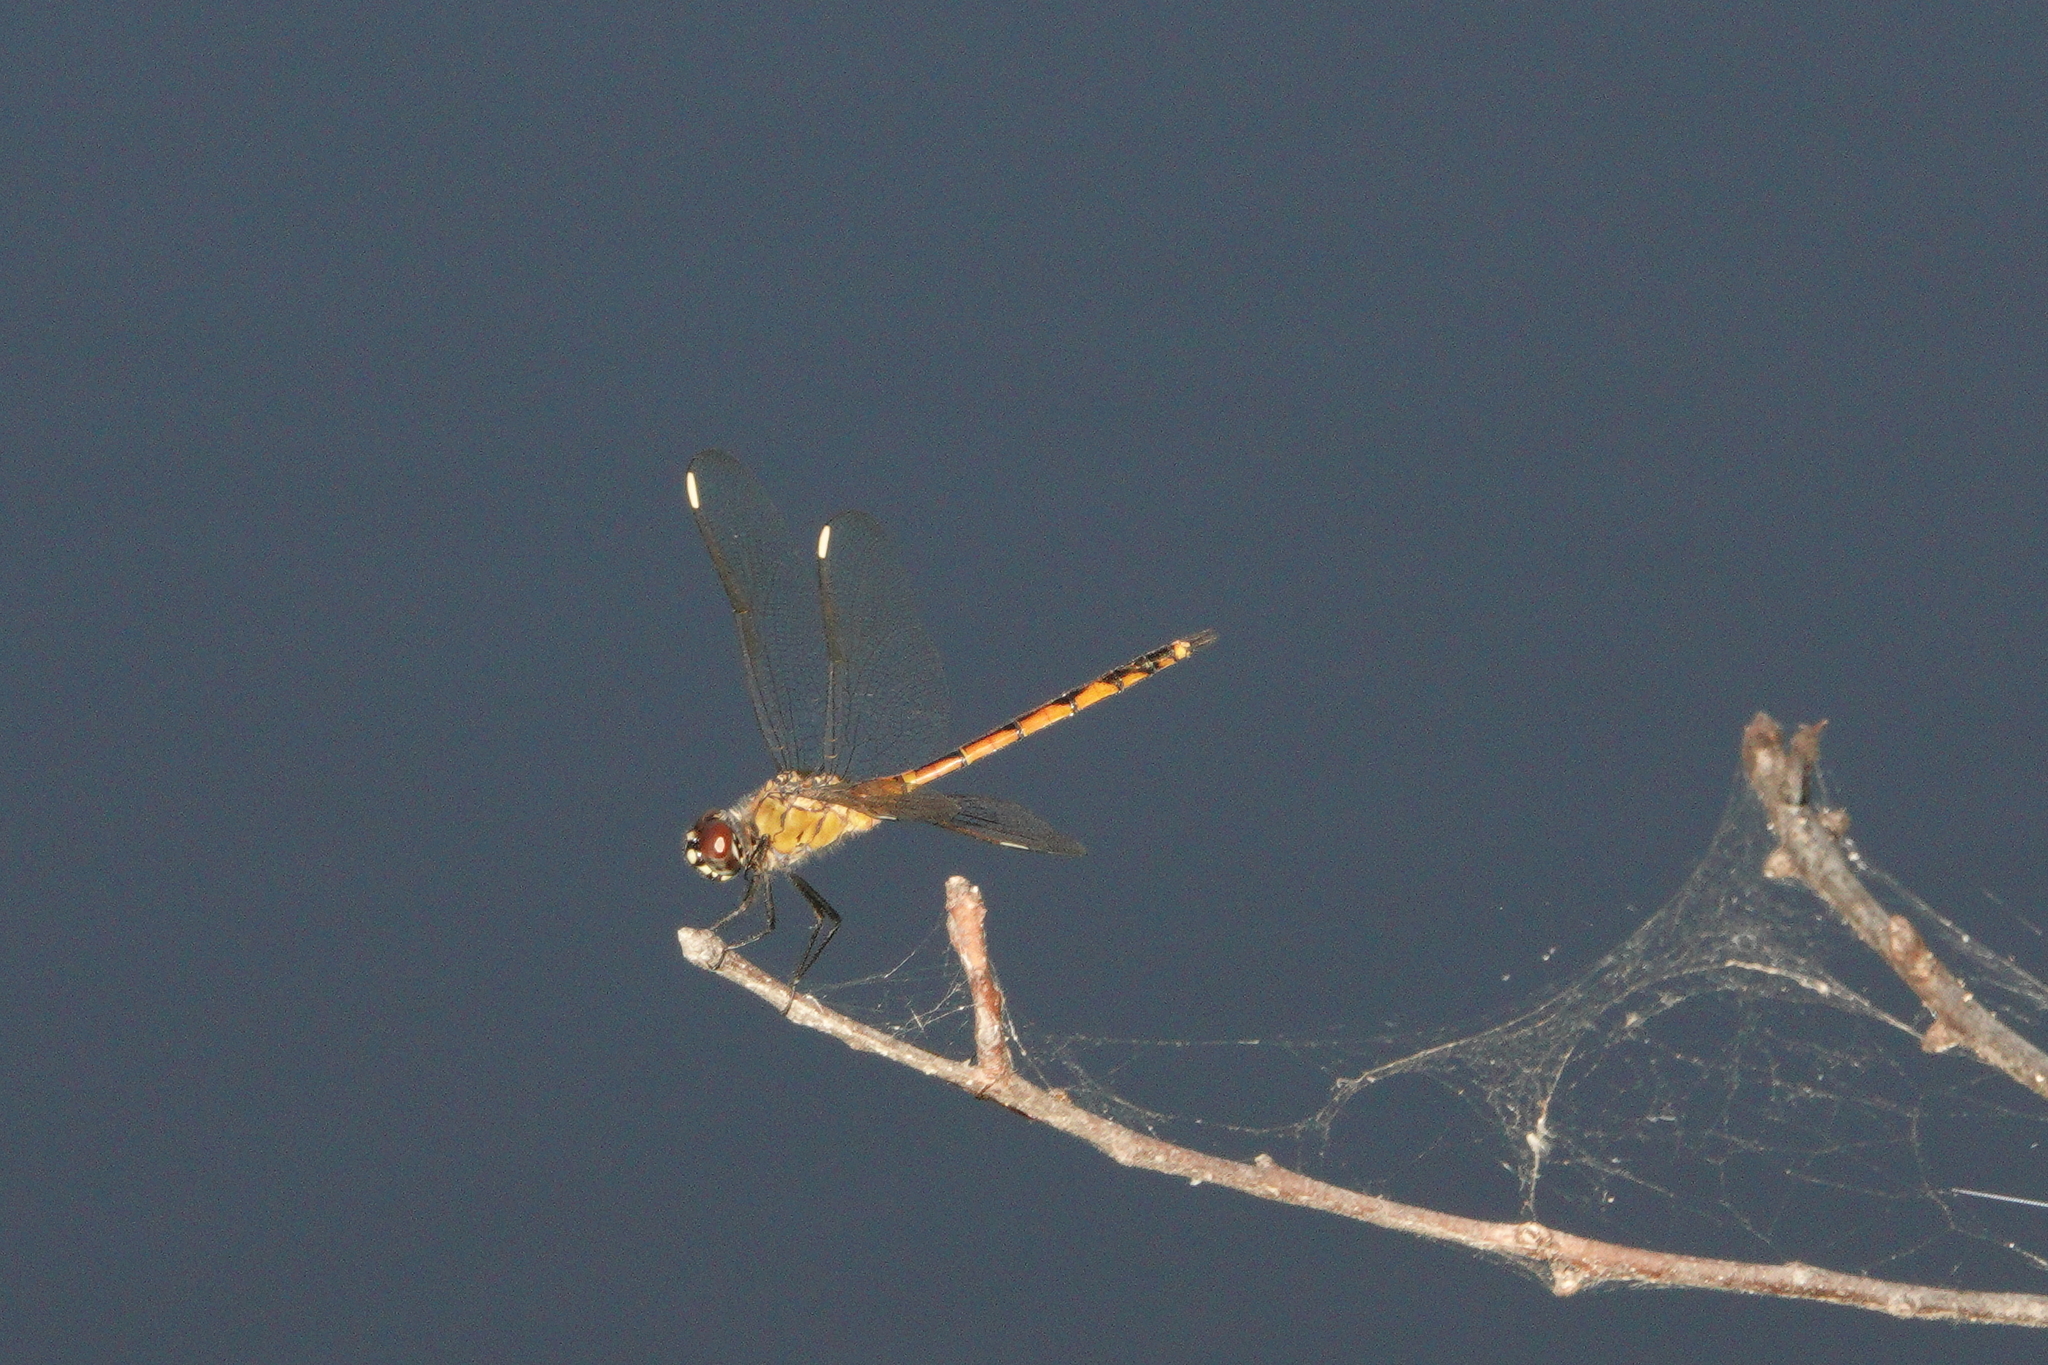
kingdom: Animalia
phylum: Arthropoda
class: Insecta
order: Odonata
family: Libellulidae
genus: Brachymesia
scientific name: Brachymesia gravida
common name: Four-spotted pennant
